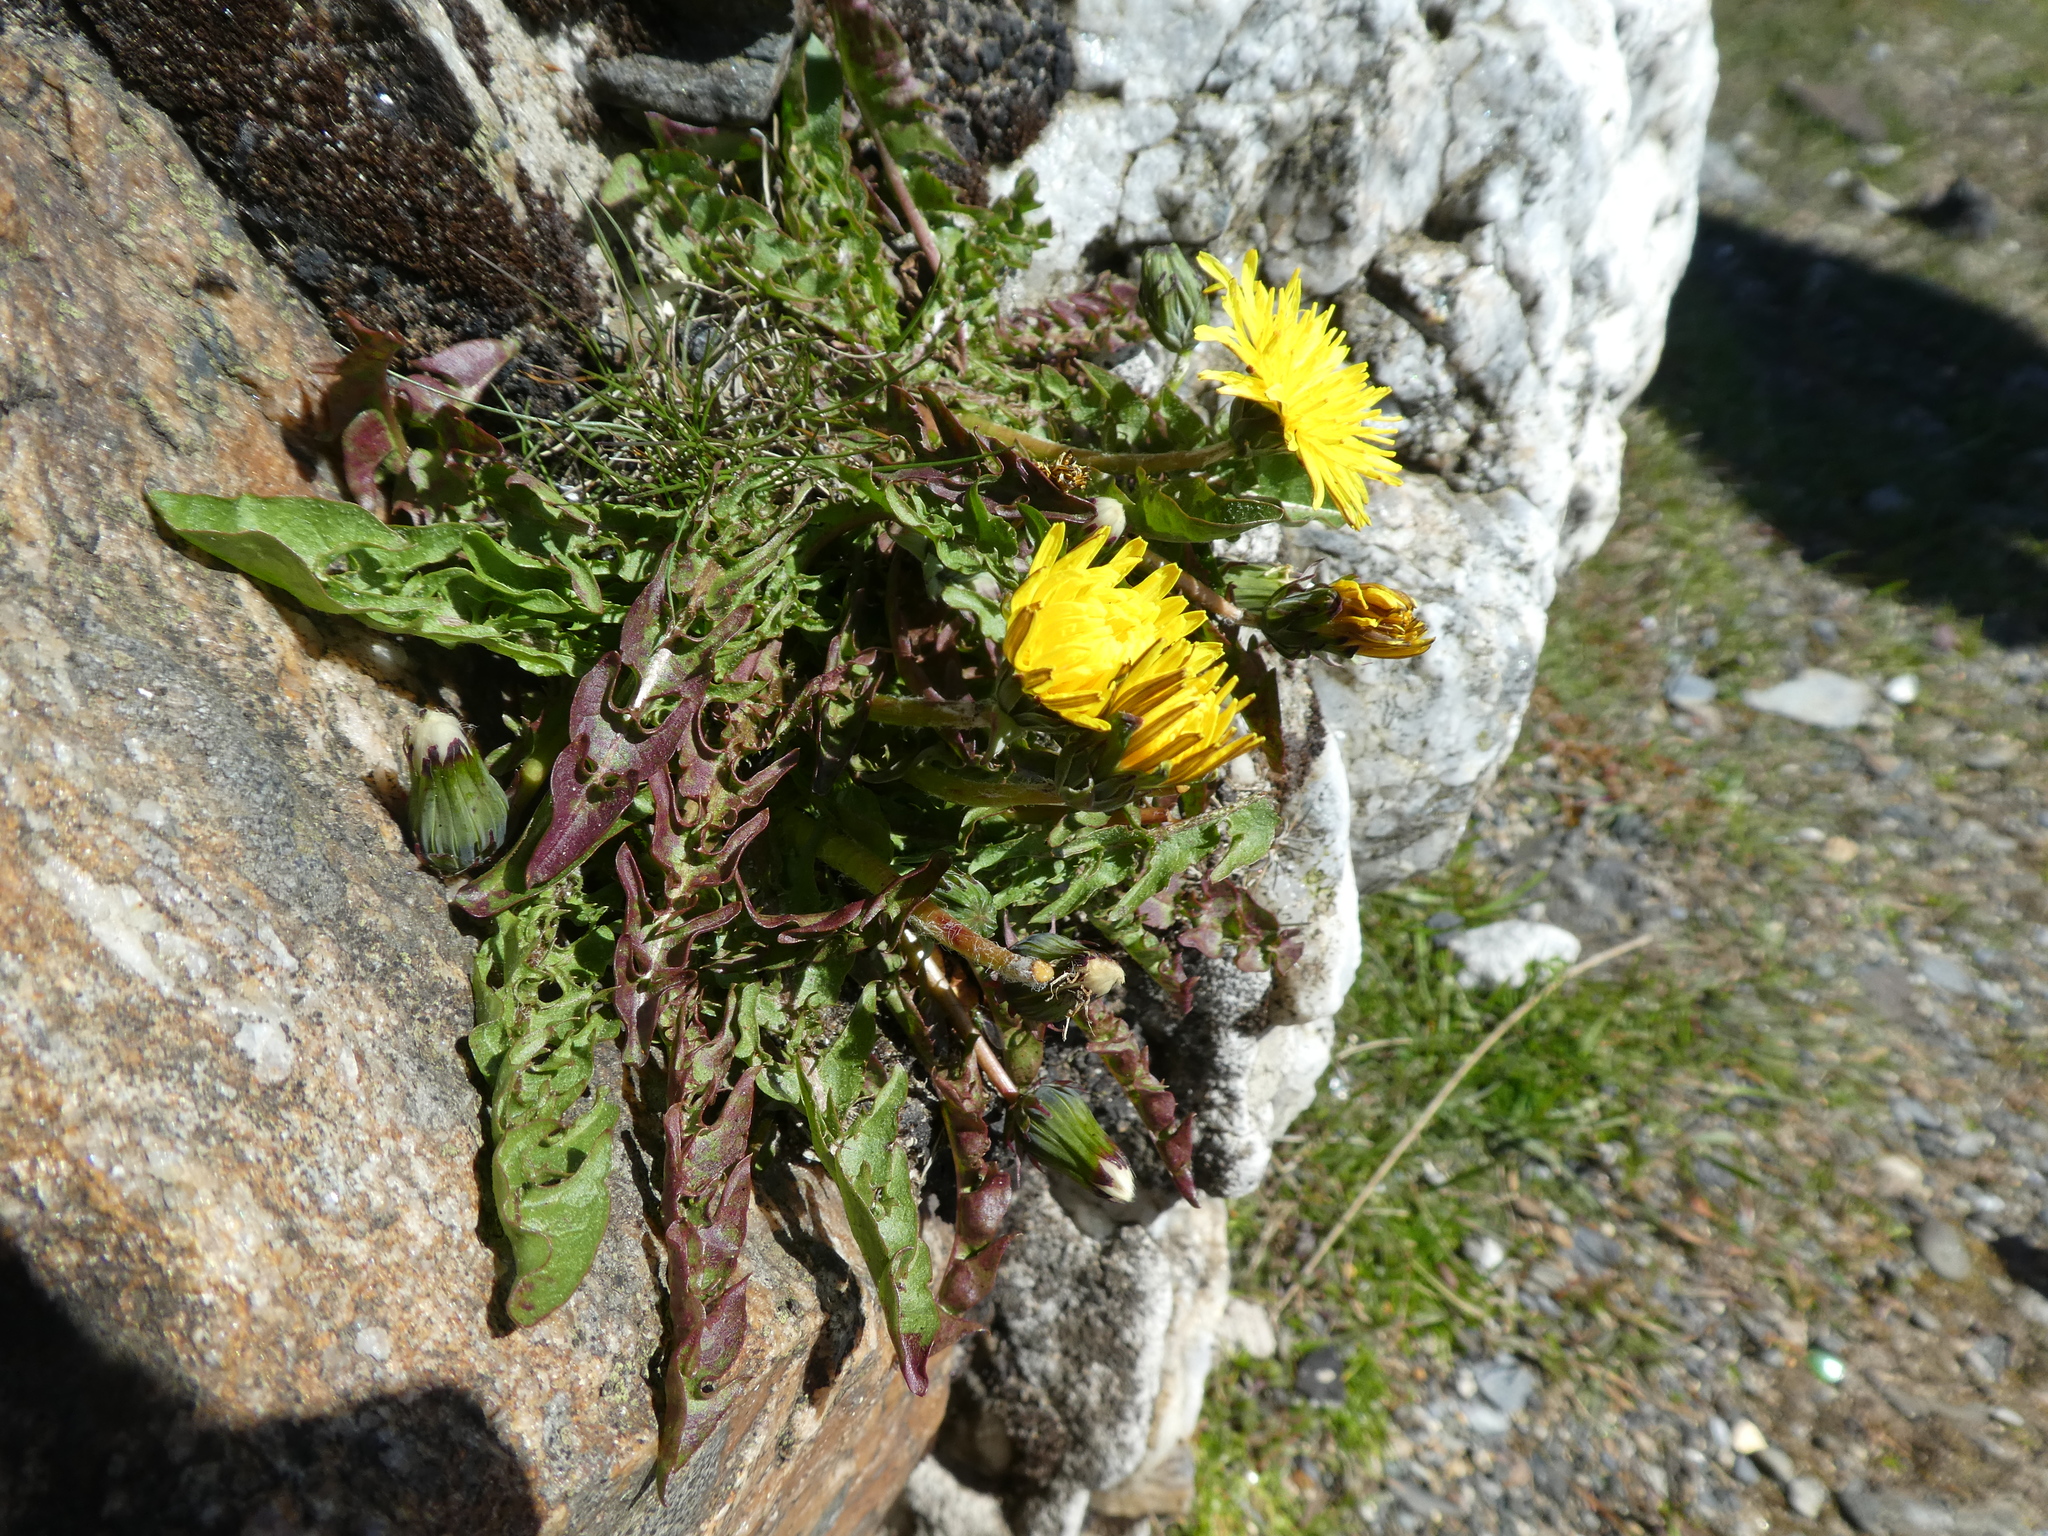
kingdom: Plantae
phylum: Tracheophyta
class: Magnoliopsida
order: Asterales
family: Asteraceae
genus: Taraxacum
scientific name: Taraxacum officinale
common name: Common dandelion
